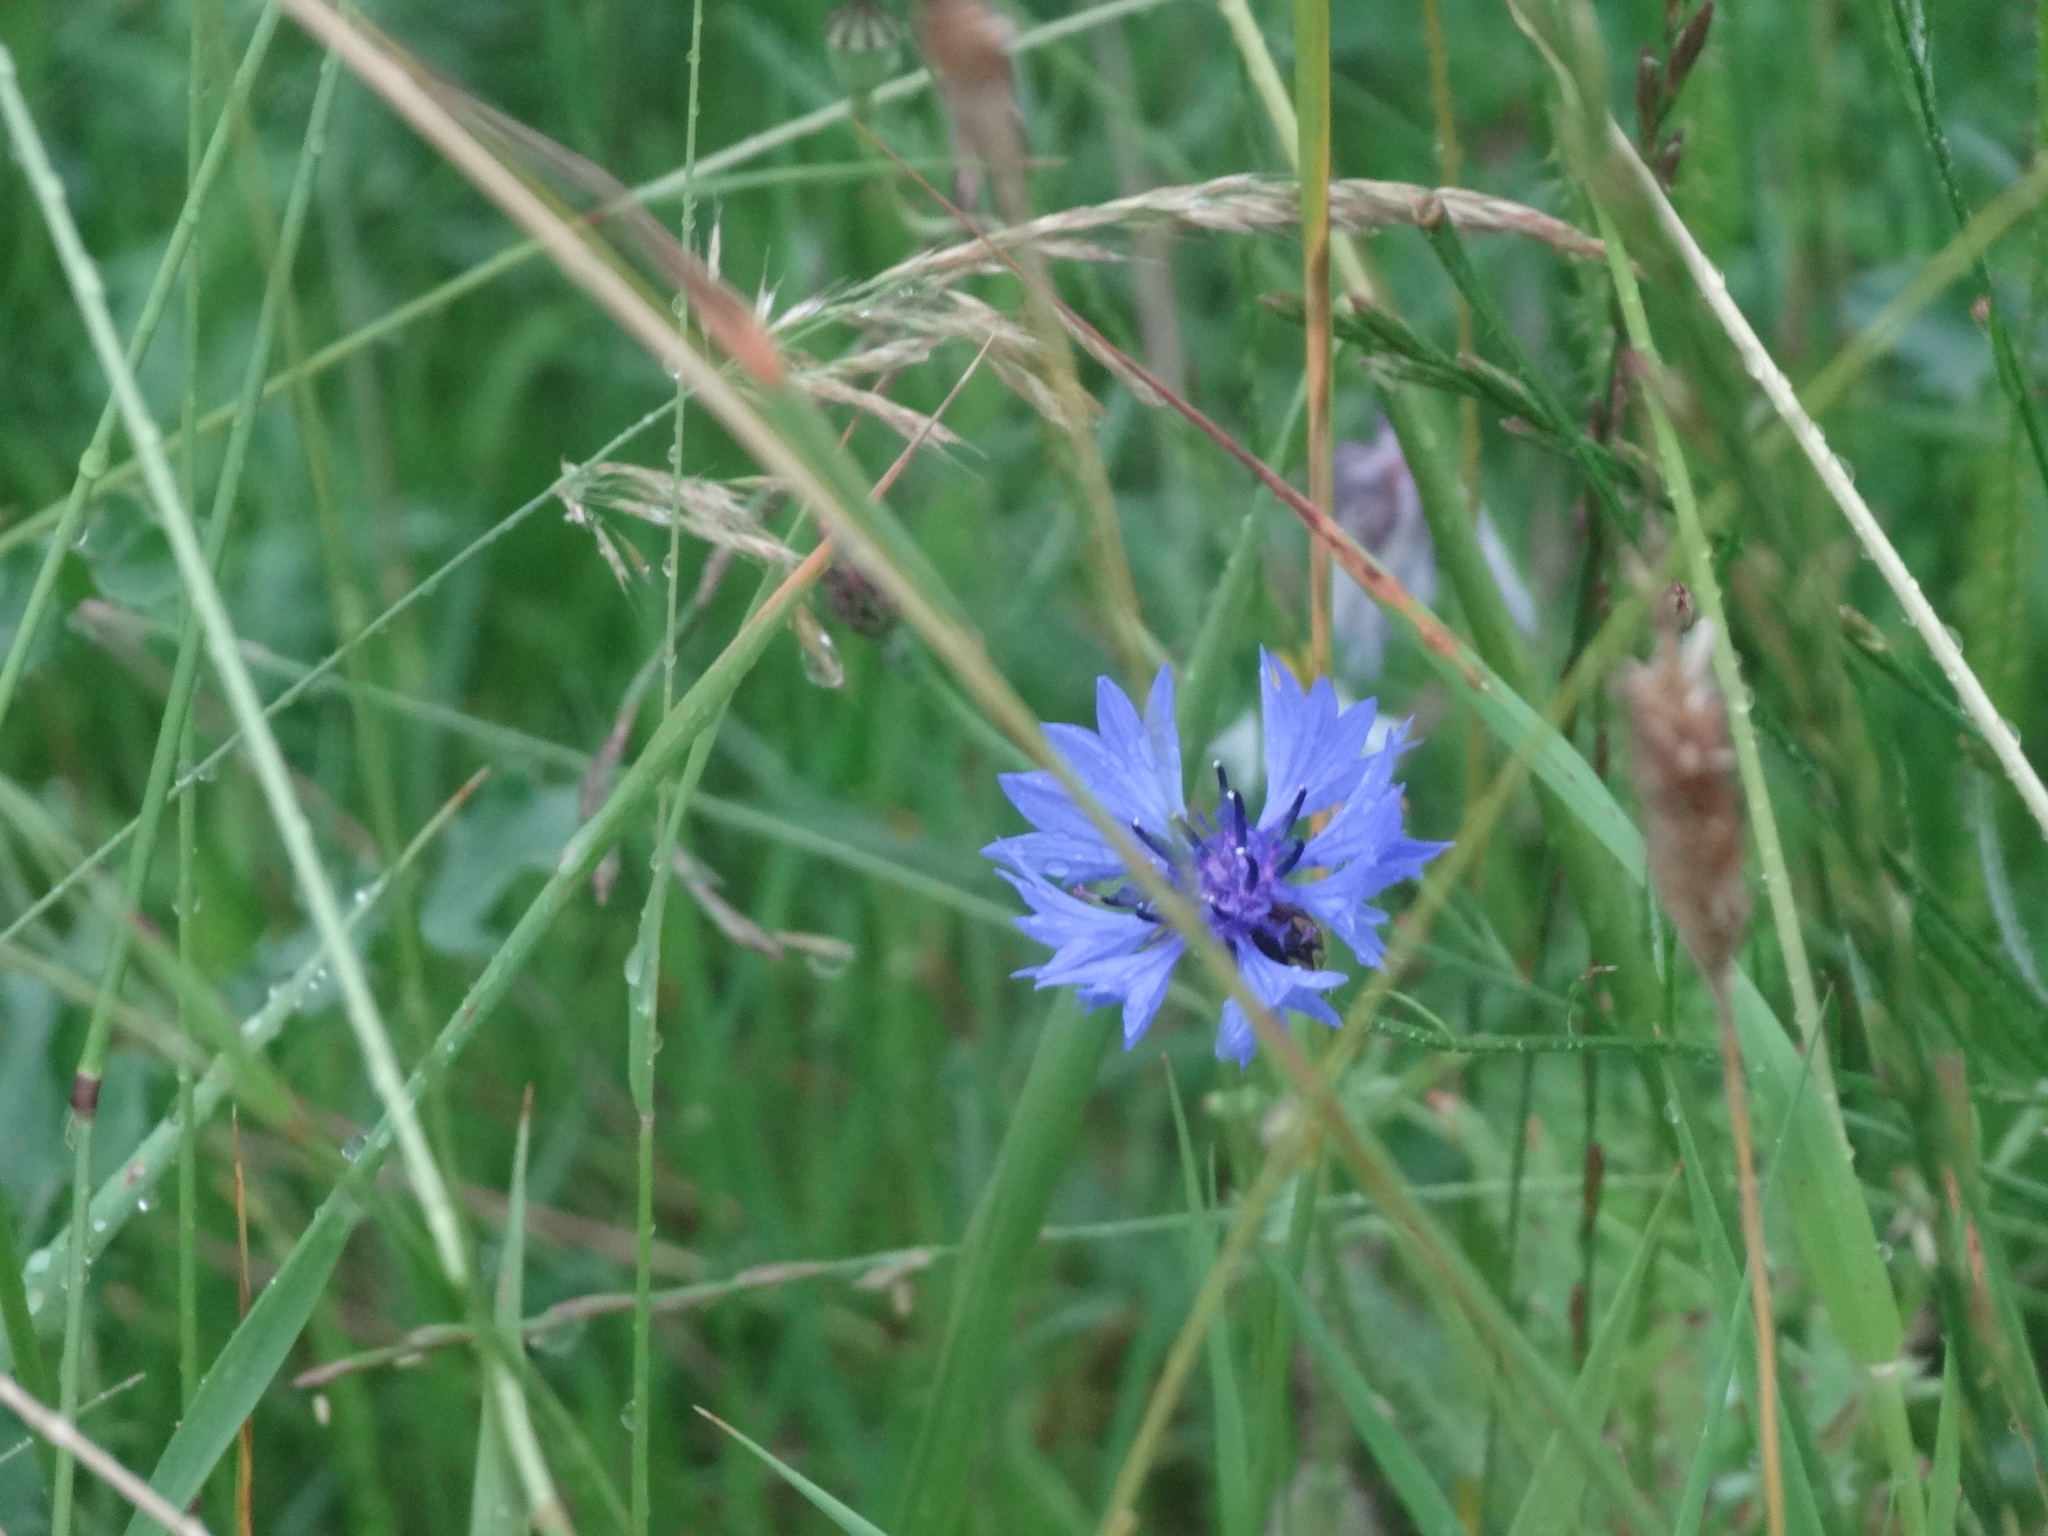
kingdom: Plantae
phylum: Tracheophyta
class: Magnoliopsida
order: Asterales
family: Asteraceae
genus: Centaurea
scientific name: Centaurea cyanus
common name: Cornflower
